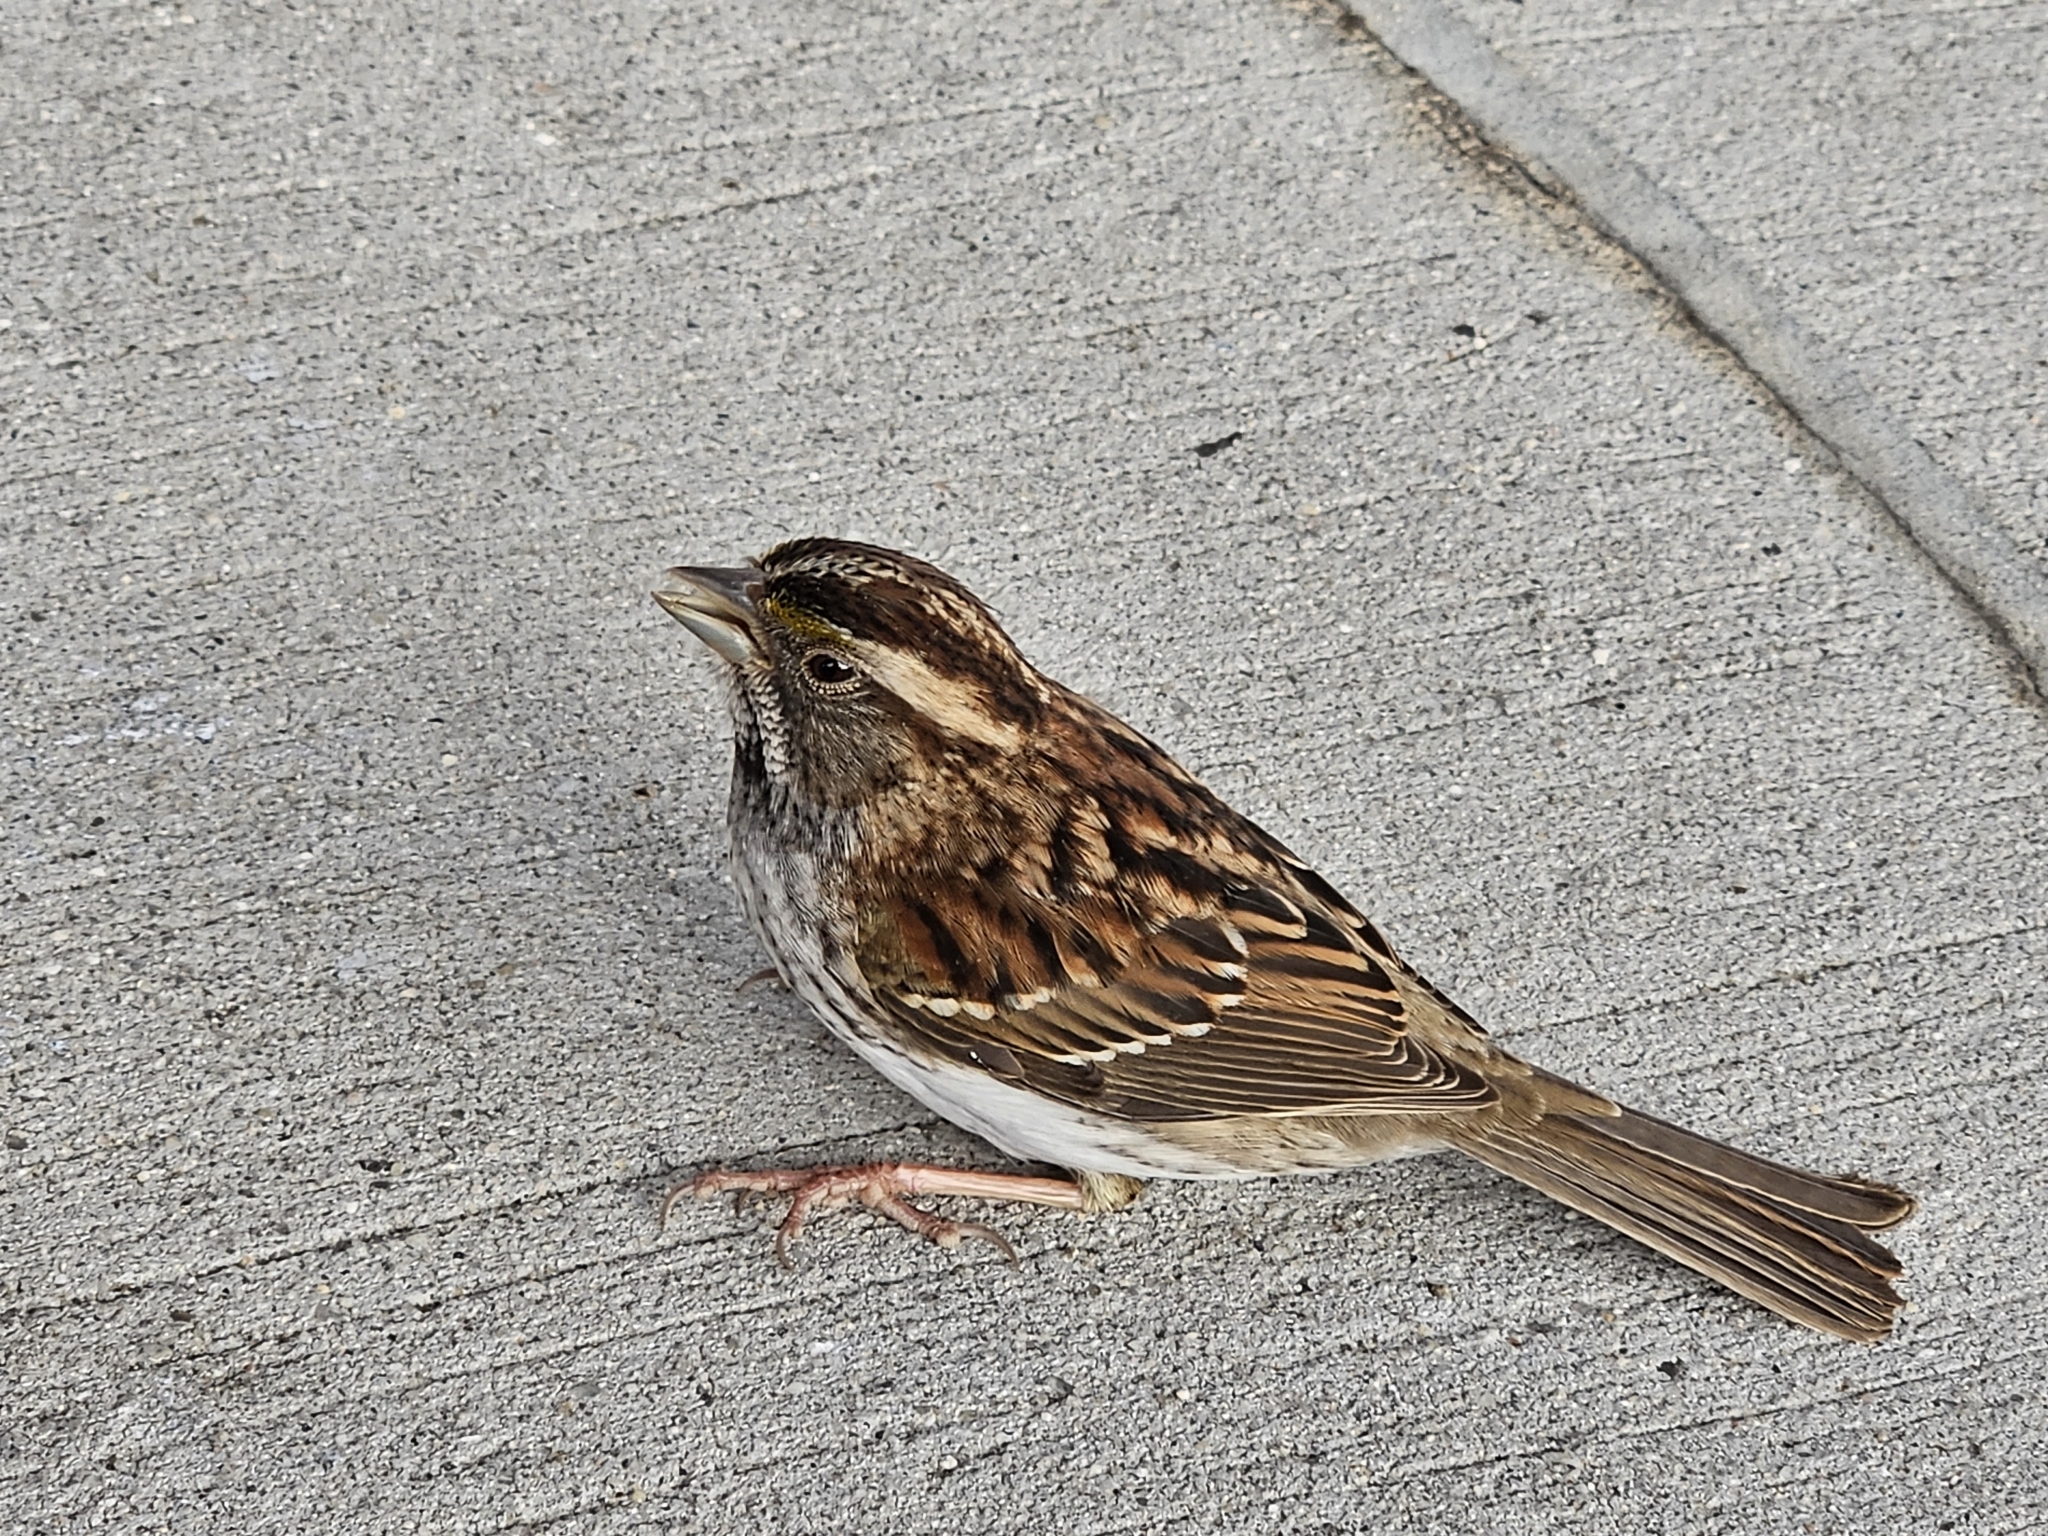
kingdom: Animalia
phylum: Chordata
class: Aves
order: Passeriformes
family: Passerellidae
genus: Zonotrichia
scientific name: Zonotrichia albicollis
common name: White-throated sparrow
